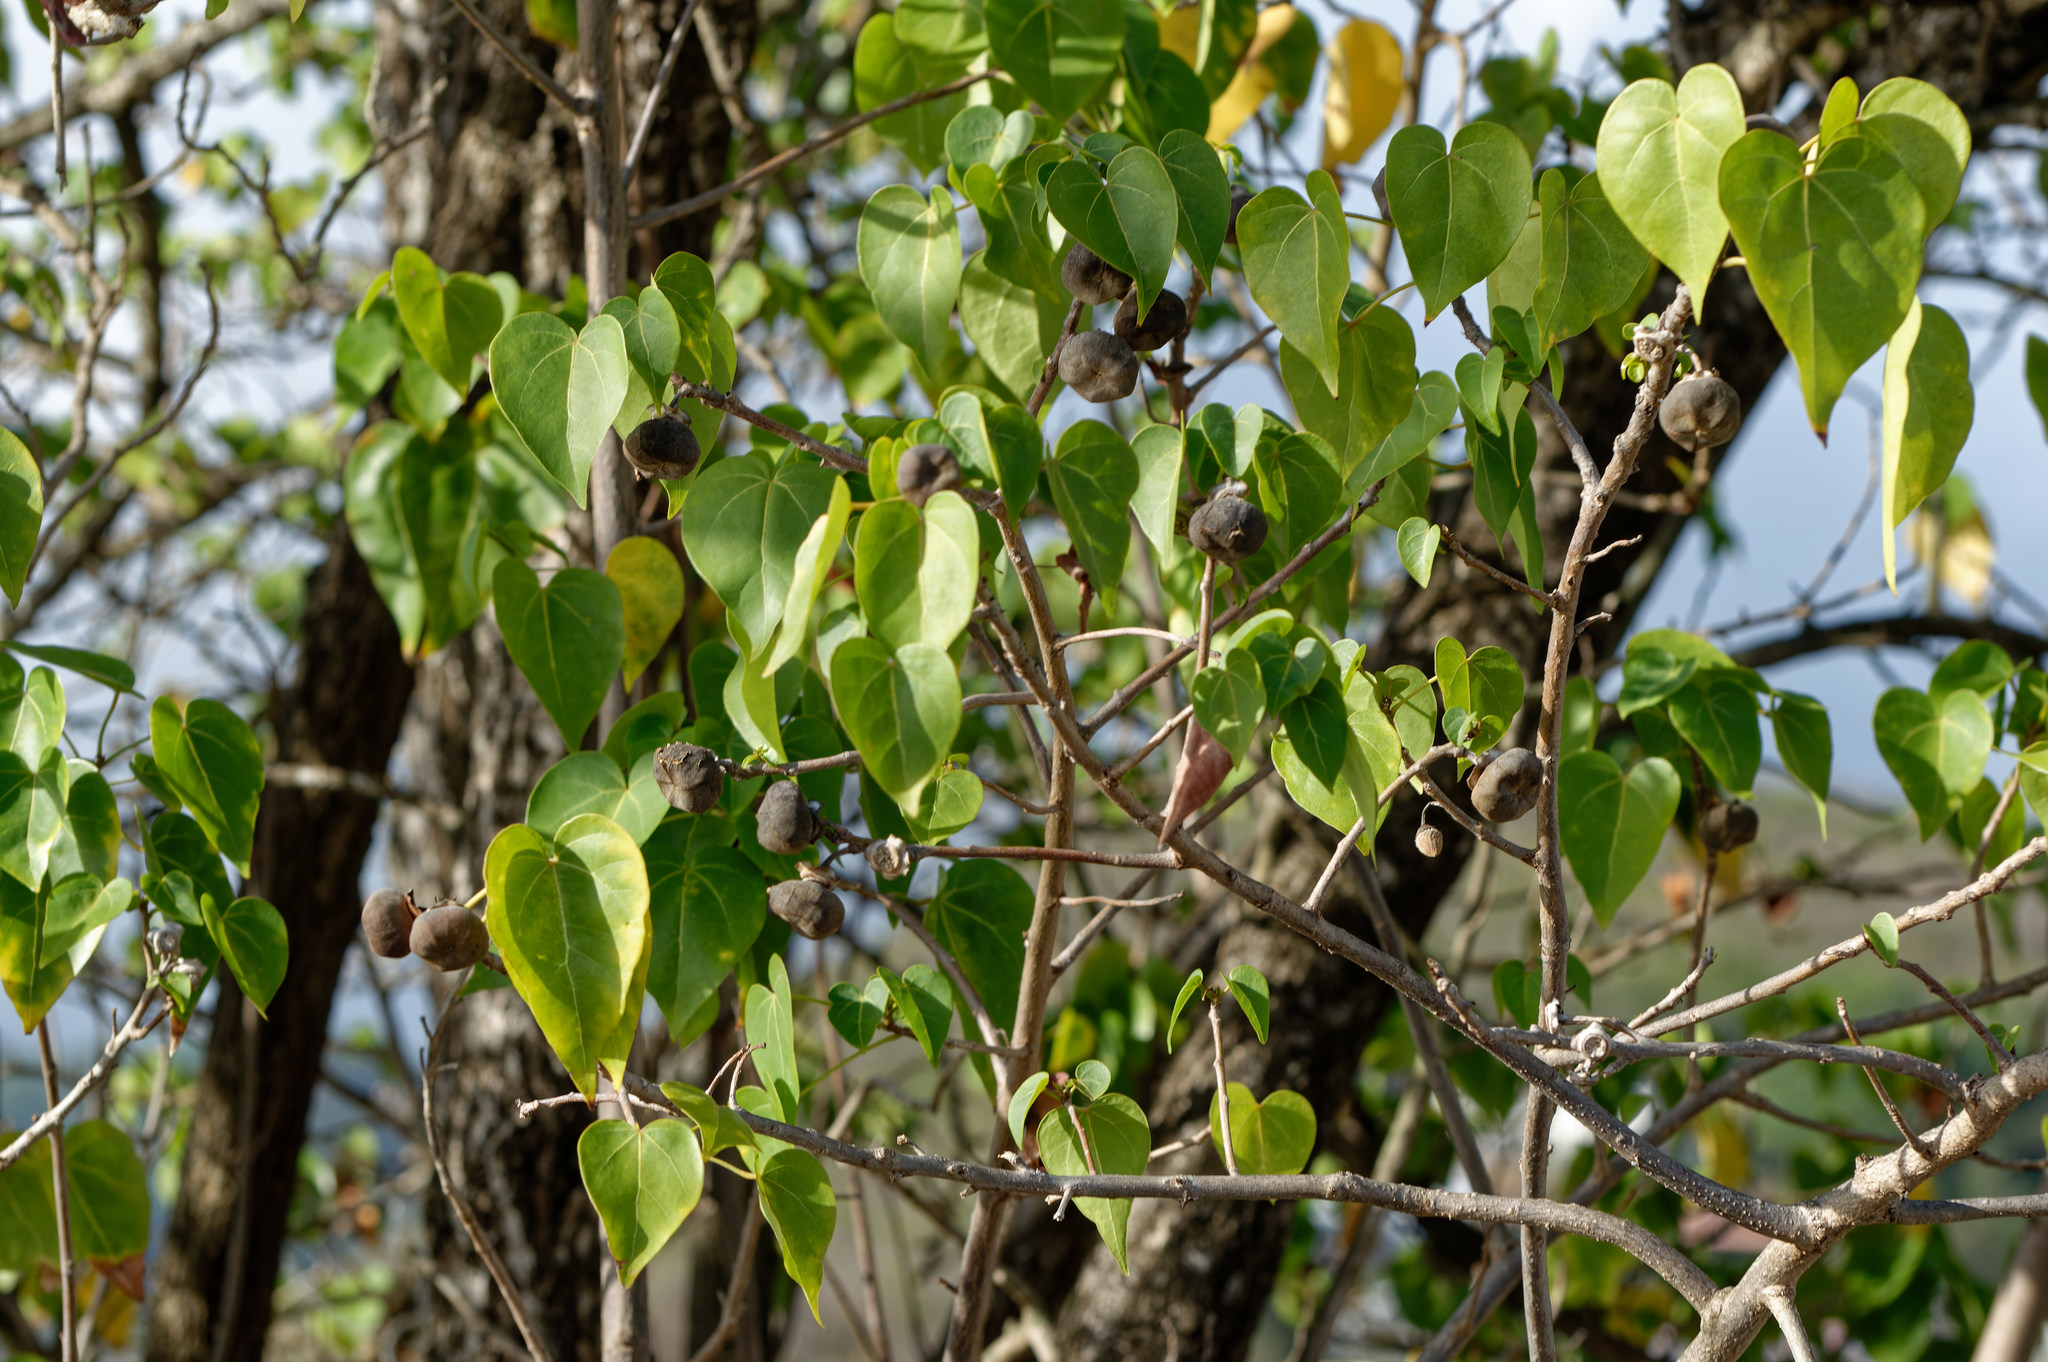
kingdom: Plantae
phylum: Tracheophyta
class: Magnoliopsida
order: Malvales
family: Malvaceae
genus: Thespesia
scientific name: Thespesia populnea
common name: Seaside mahoe
